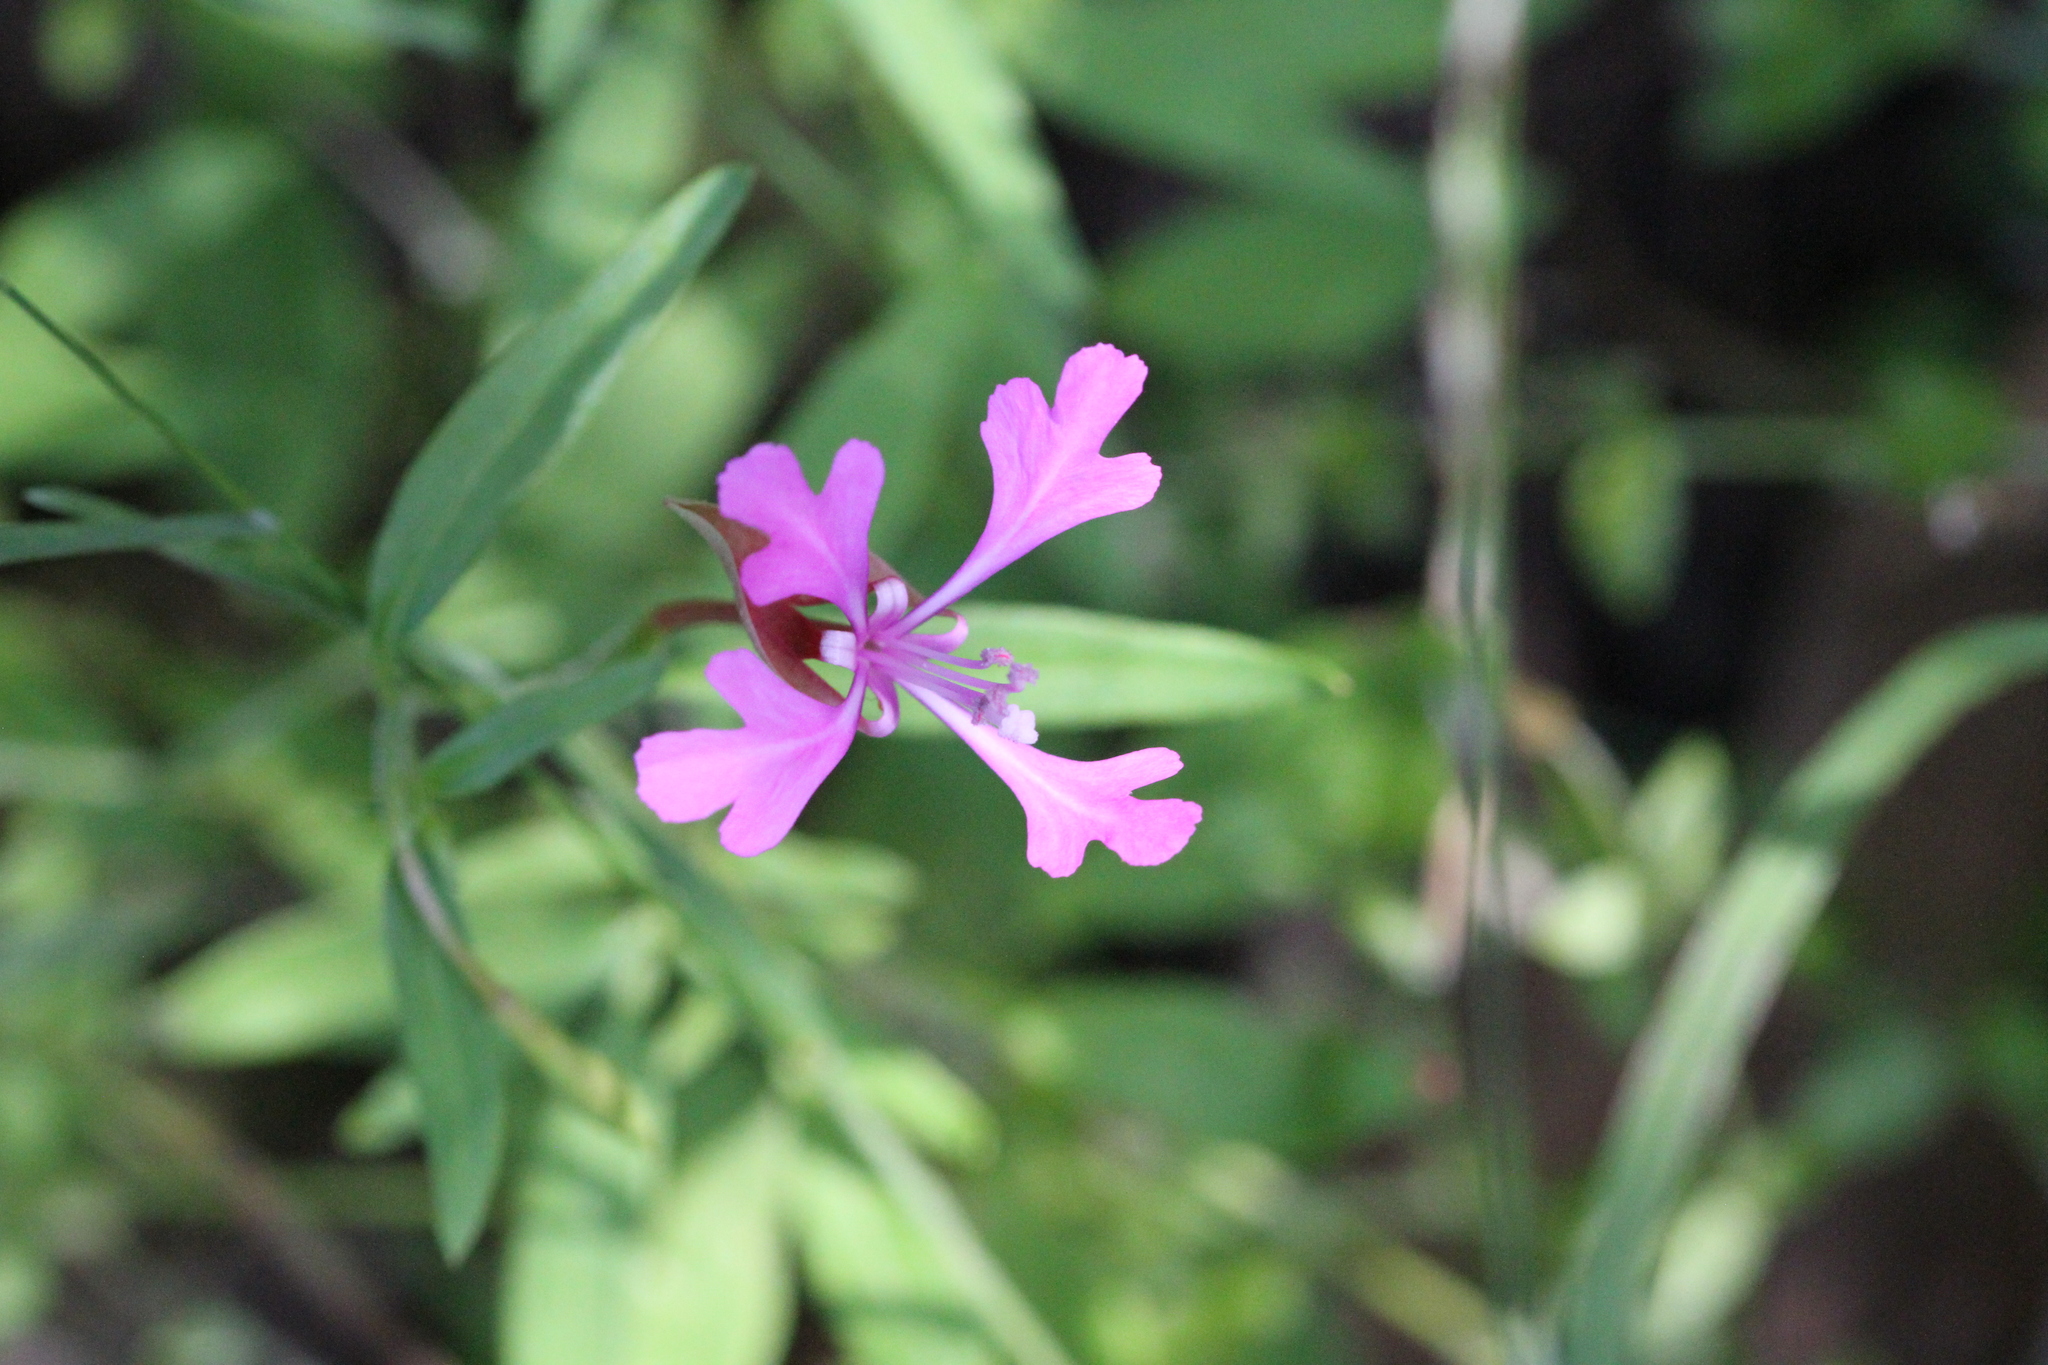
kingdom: Plantae
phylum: Tracheophyta
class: Magnoliopsida
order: Myrtales
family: Onagraceae
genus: Clarkia
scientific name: Clarkia concinna
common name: Red-ribbons
